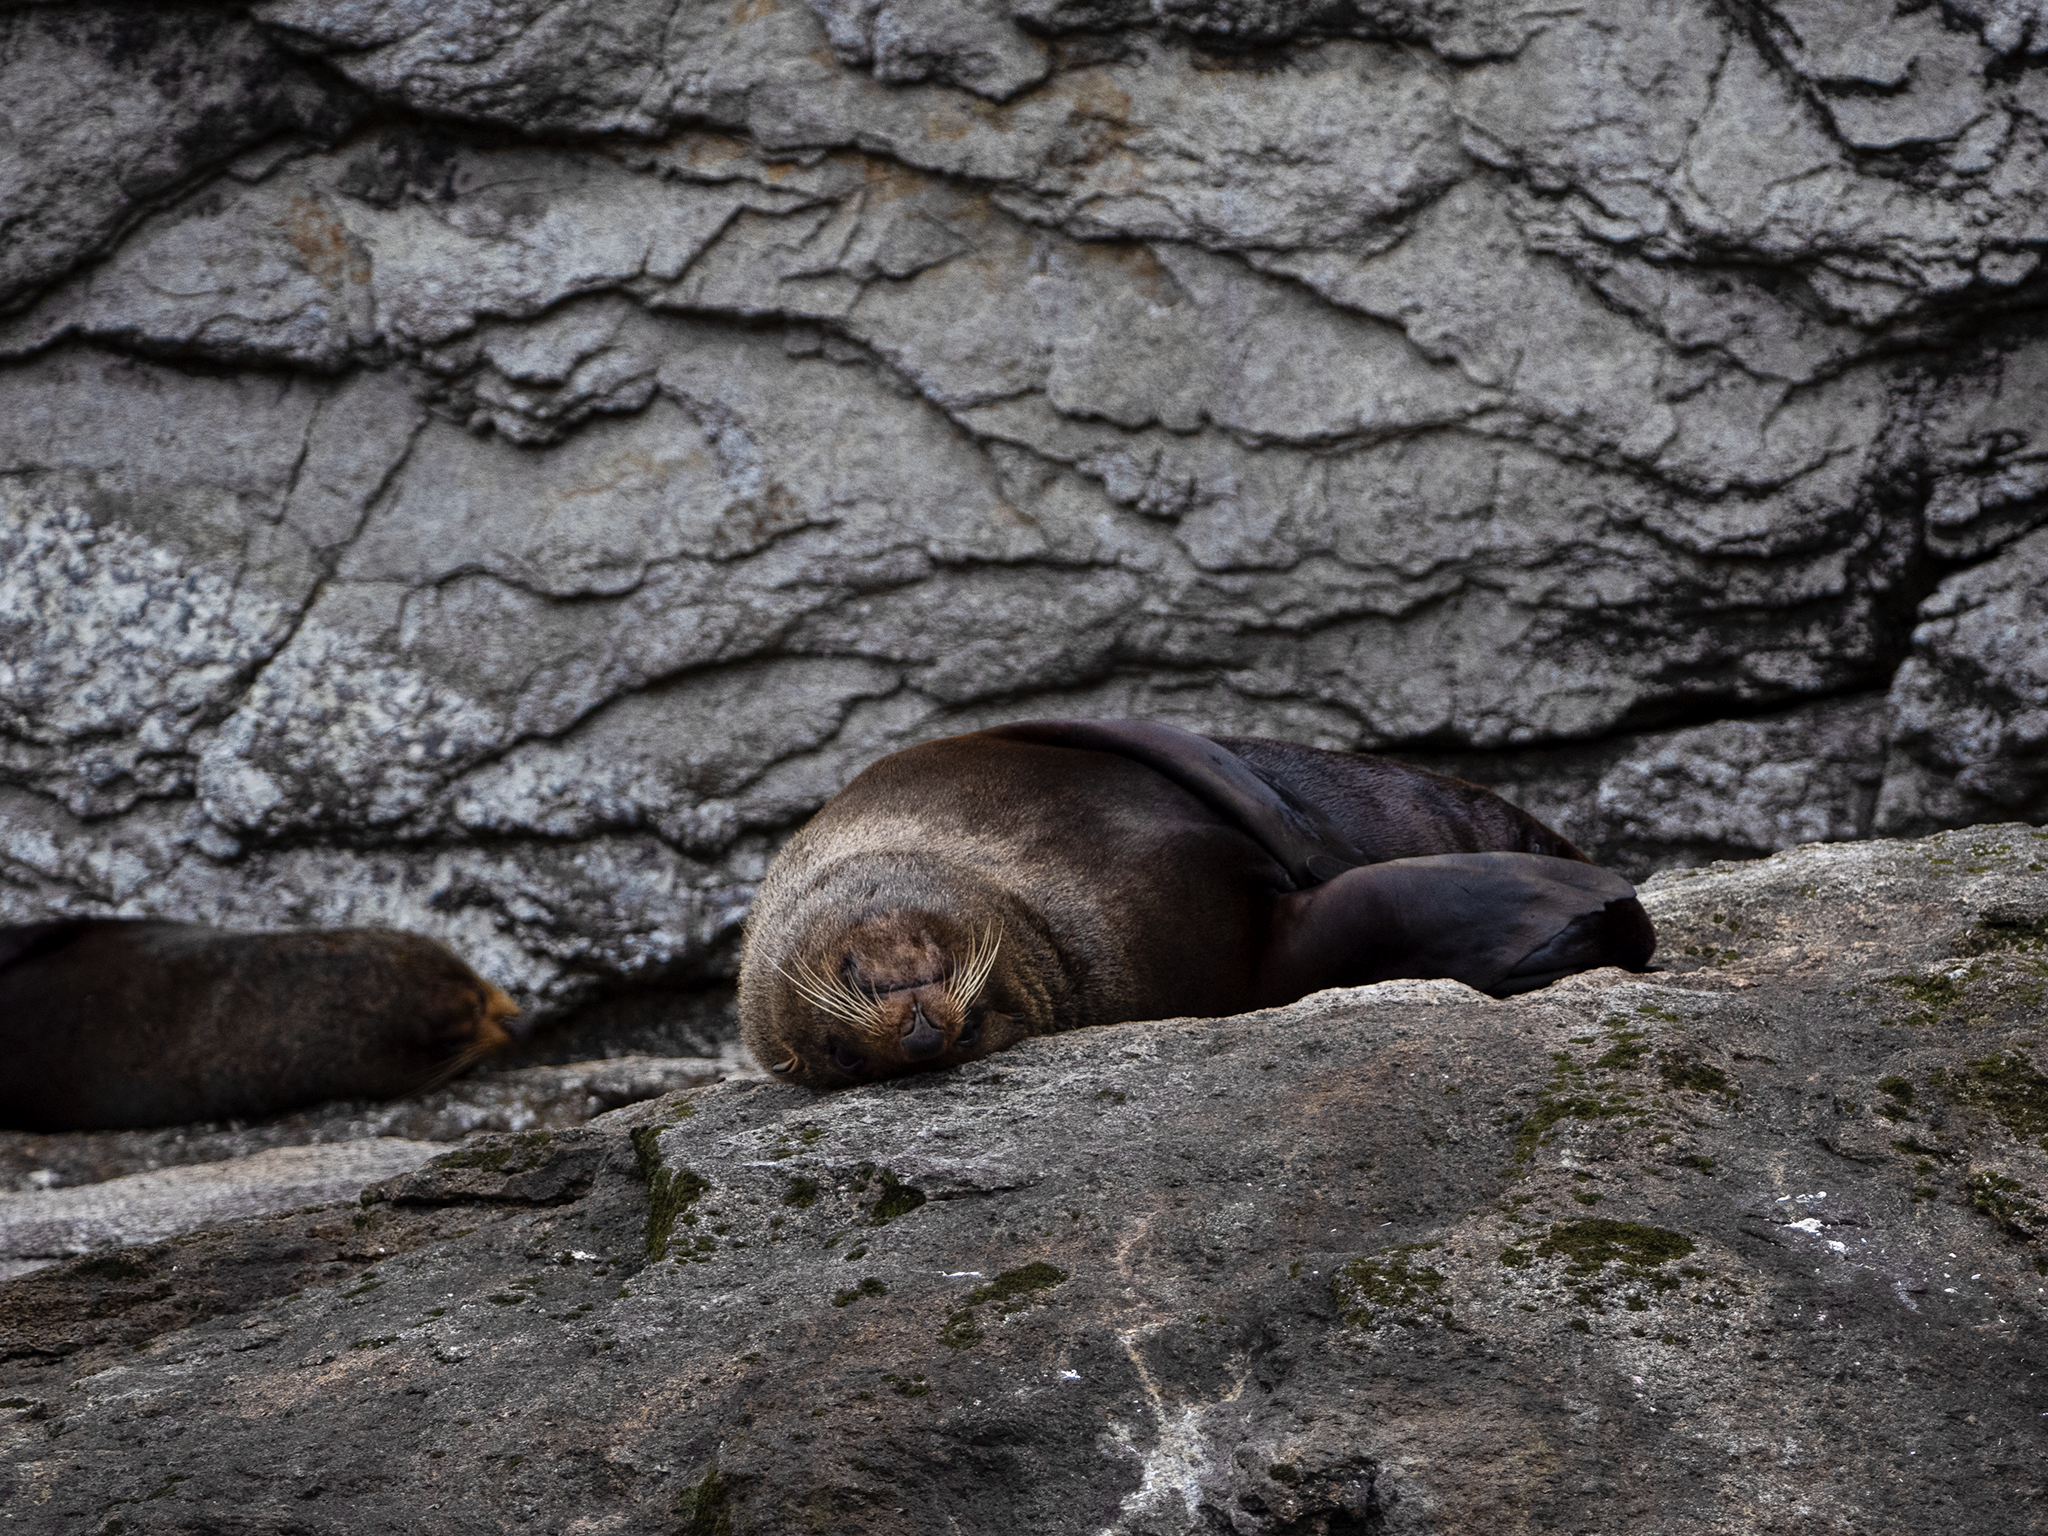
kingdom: Animalia
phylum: Chordata
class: Mammalia
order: Carnivora
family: Otariidae
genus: Arctocephalus
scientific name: Arctocephalus forsteri
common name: New zealand fur seal
